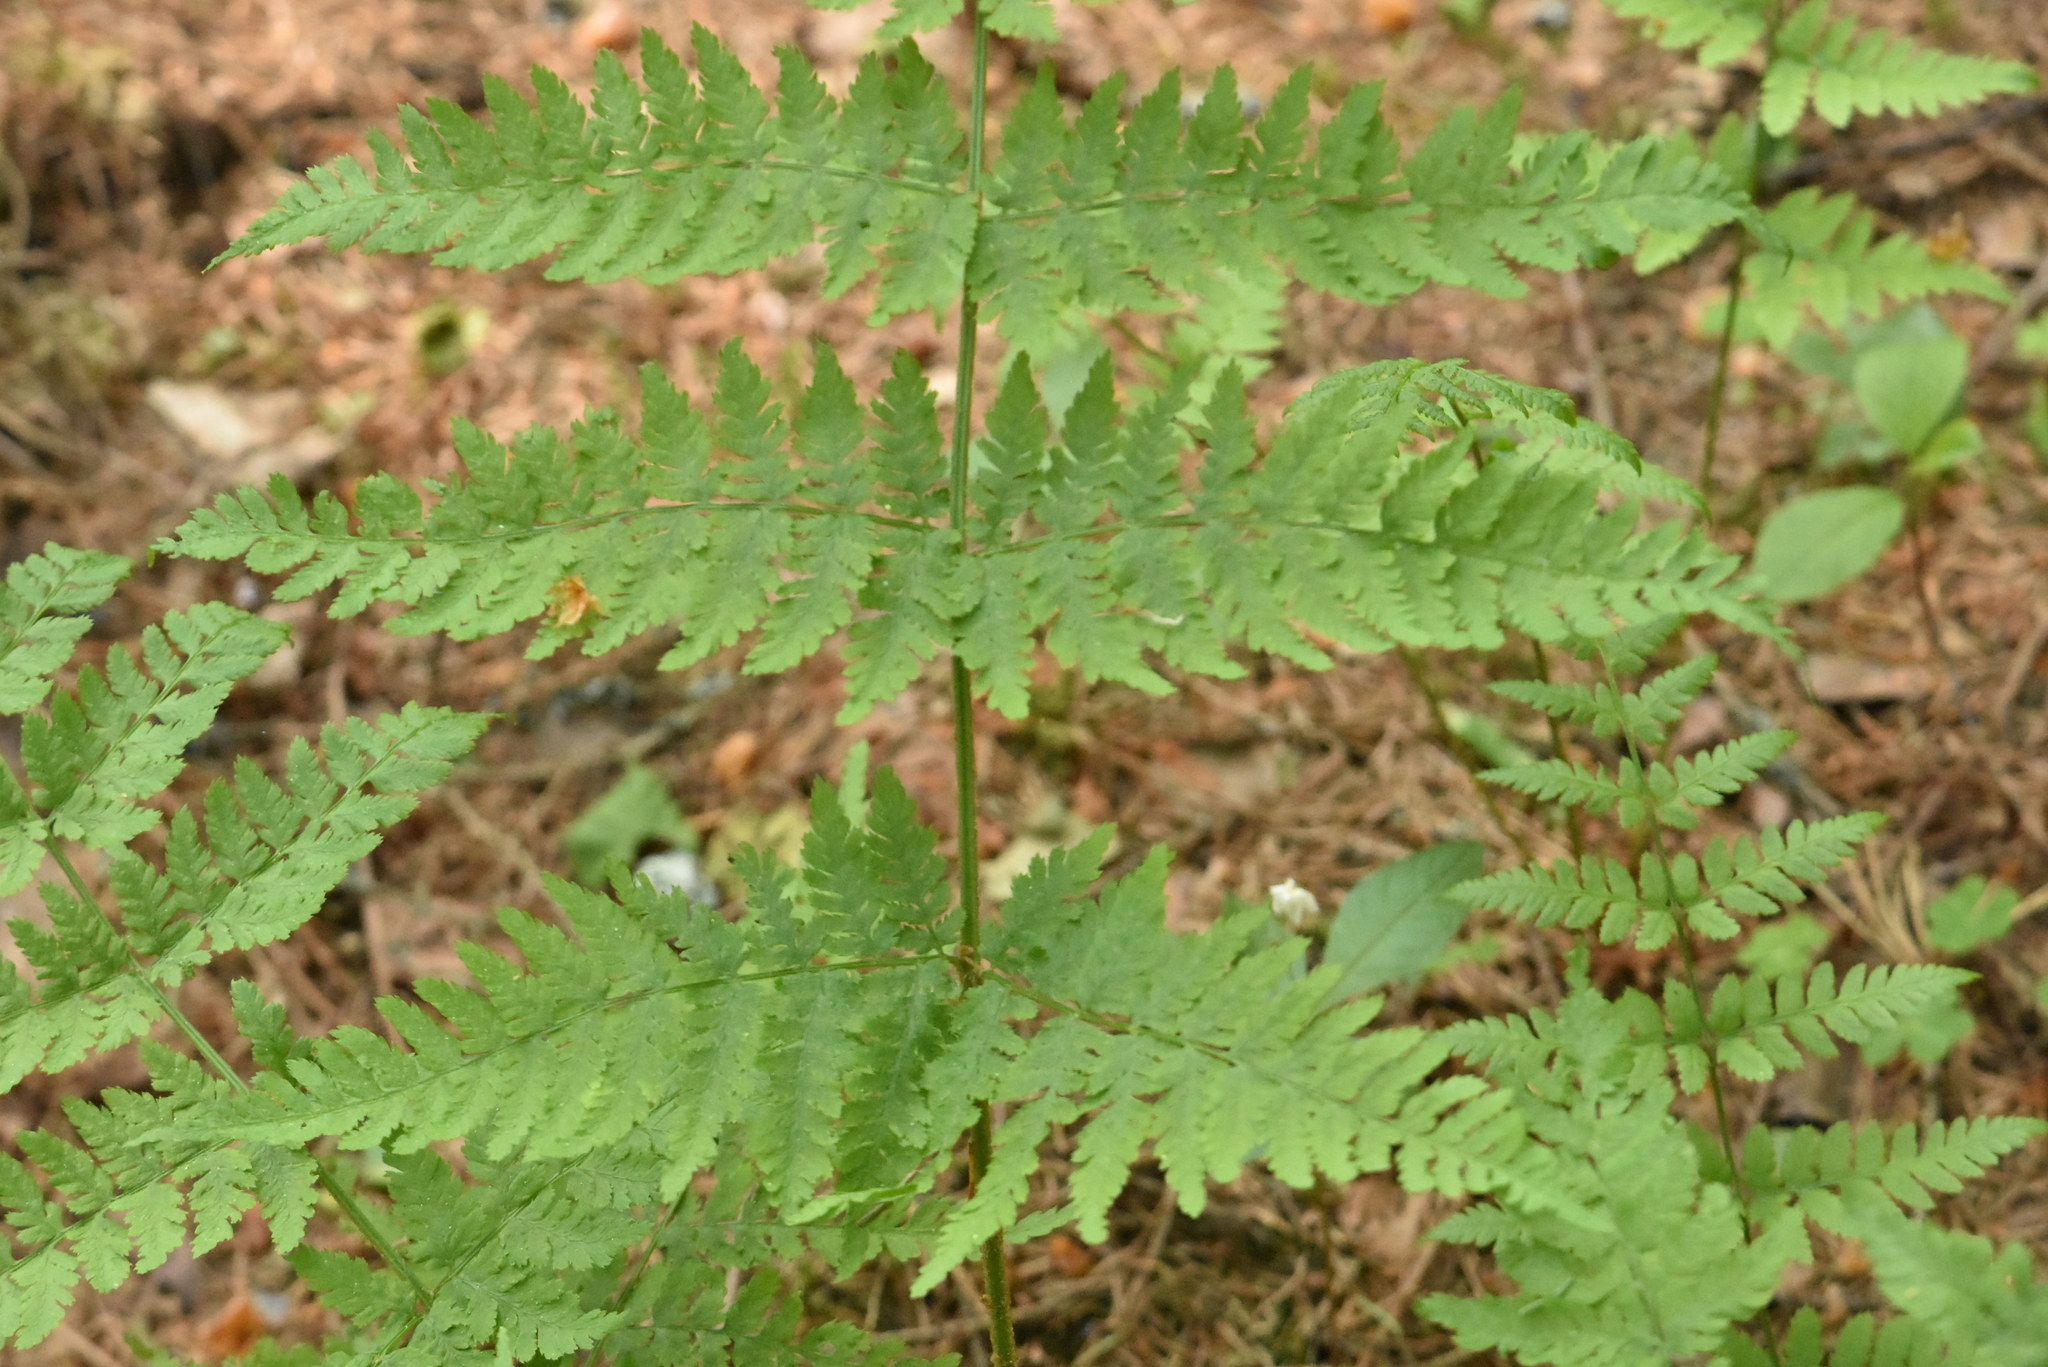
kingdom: Plantae
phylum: Tracheophyta
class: Polypodiopsida
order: Polypodiales
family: Dryopteridaceae
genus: Dryopteris
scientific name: Dryopteris expansa
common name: Northern buckler fern
